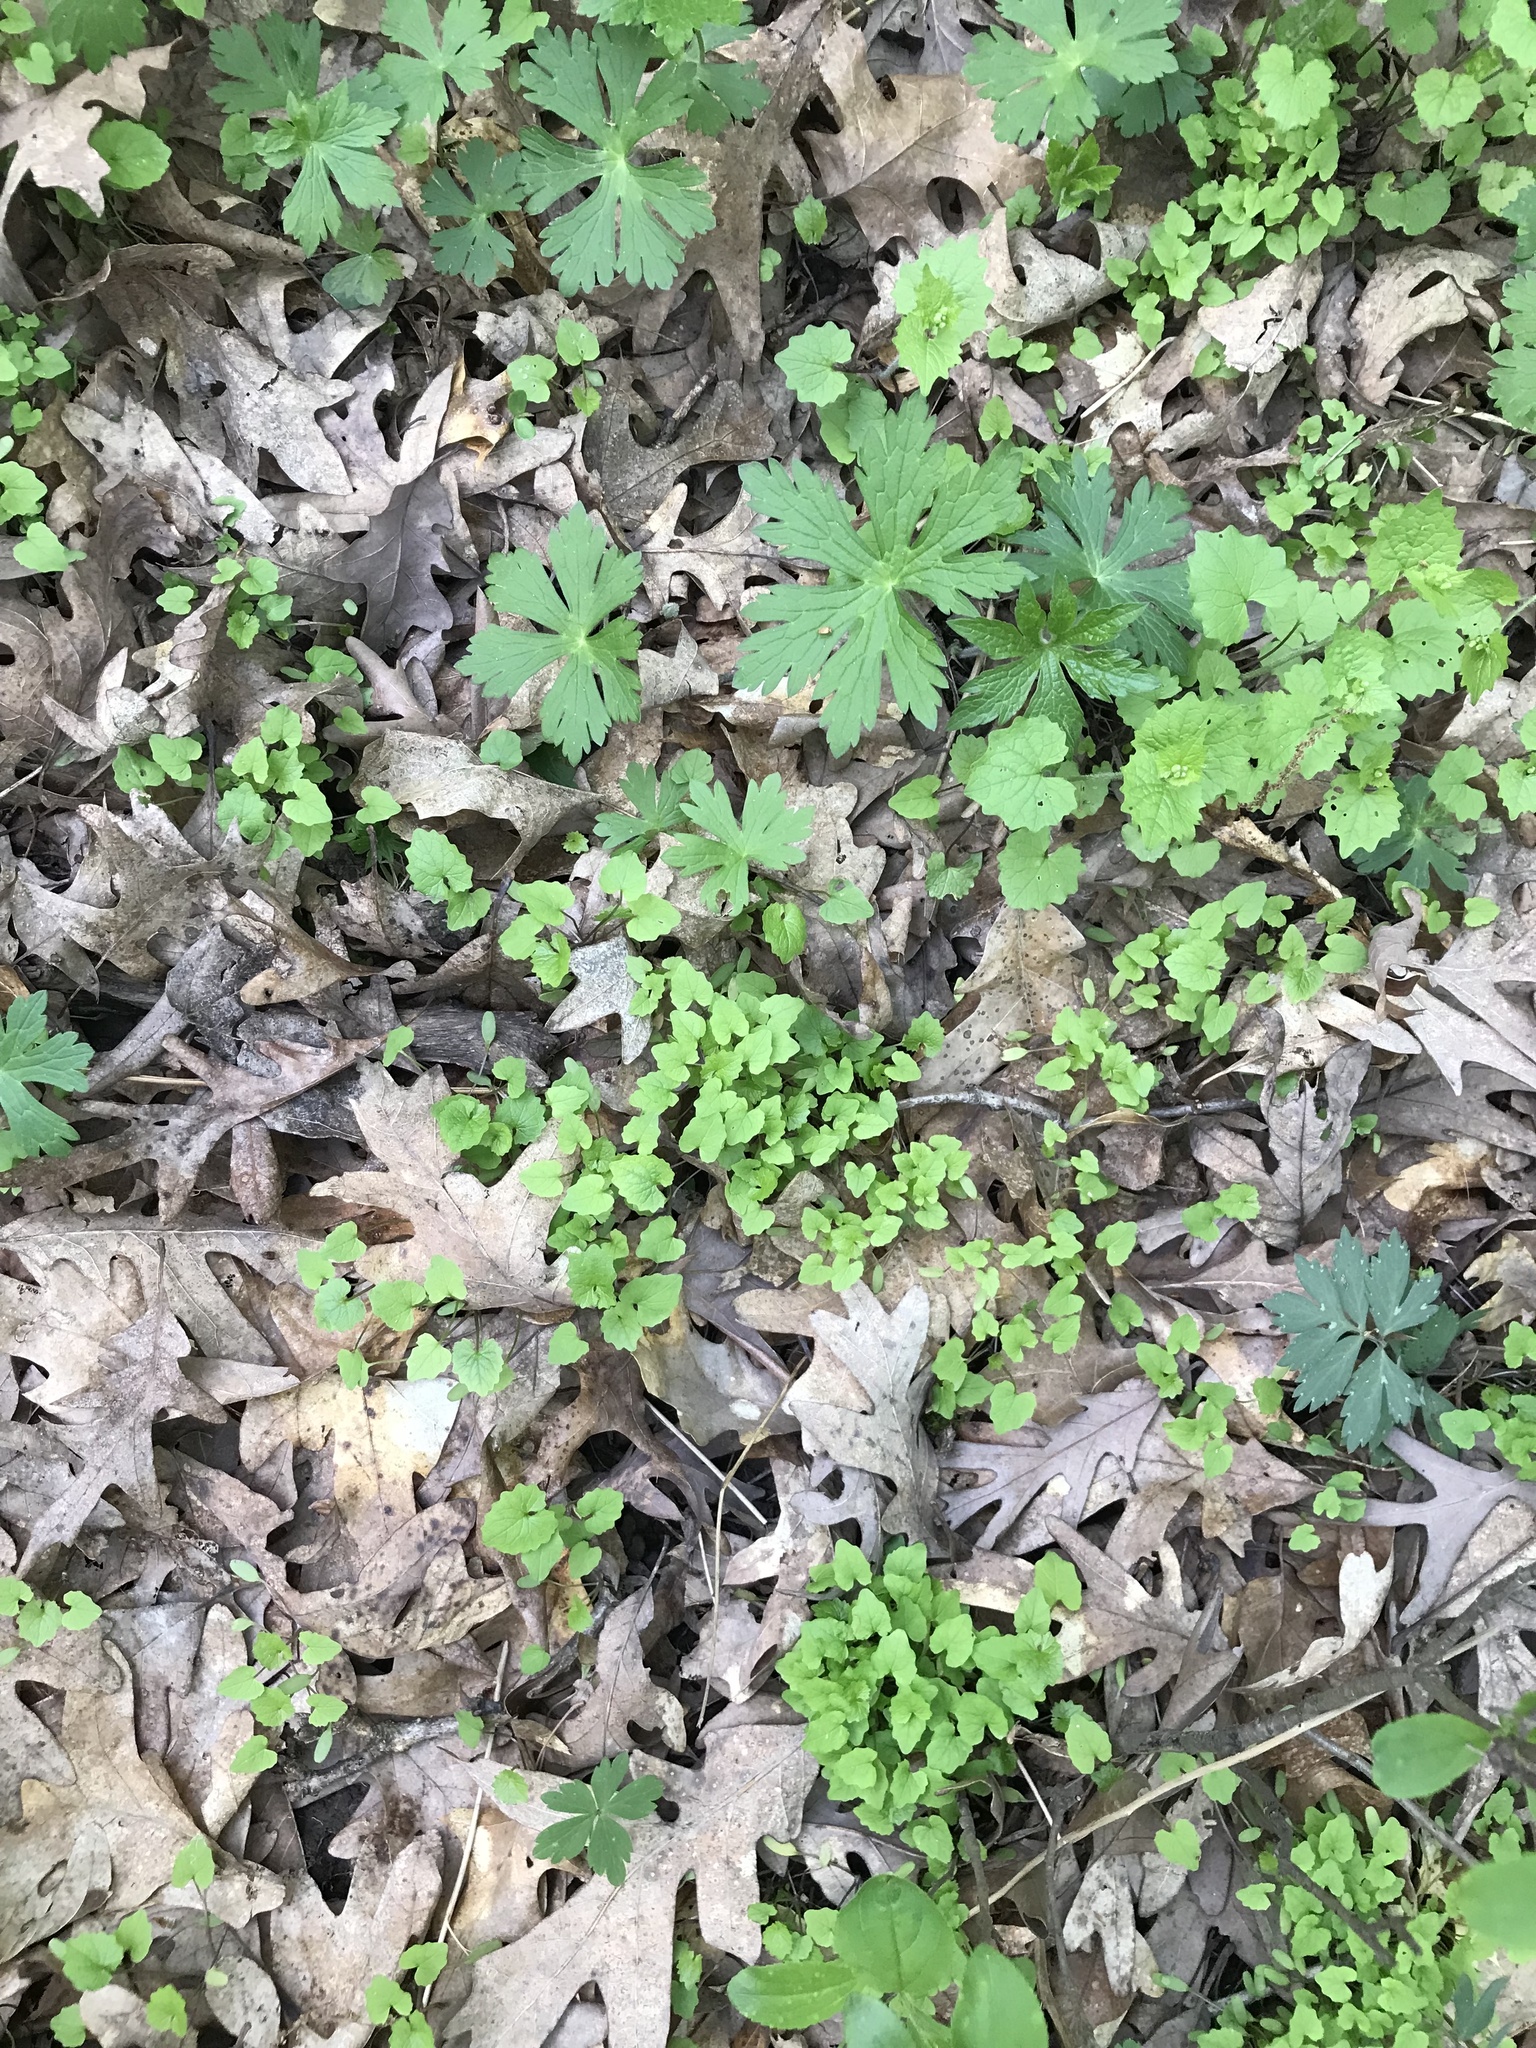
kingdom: Plantae
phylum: Tracheophyta
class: Magnoliopsida
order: Brassicales
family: Brassicaceae
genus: Alliaria
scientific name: Alliaria petiolata
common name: Garlic mustard
